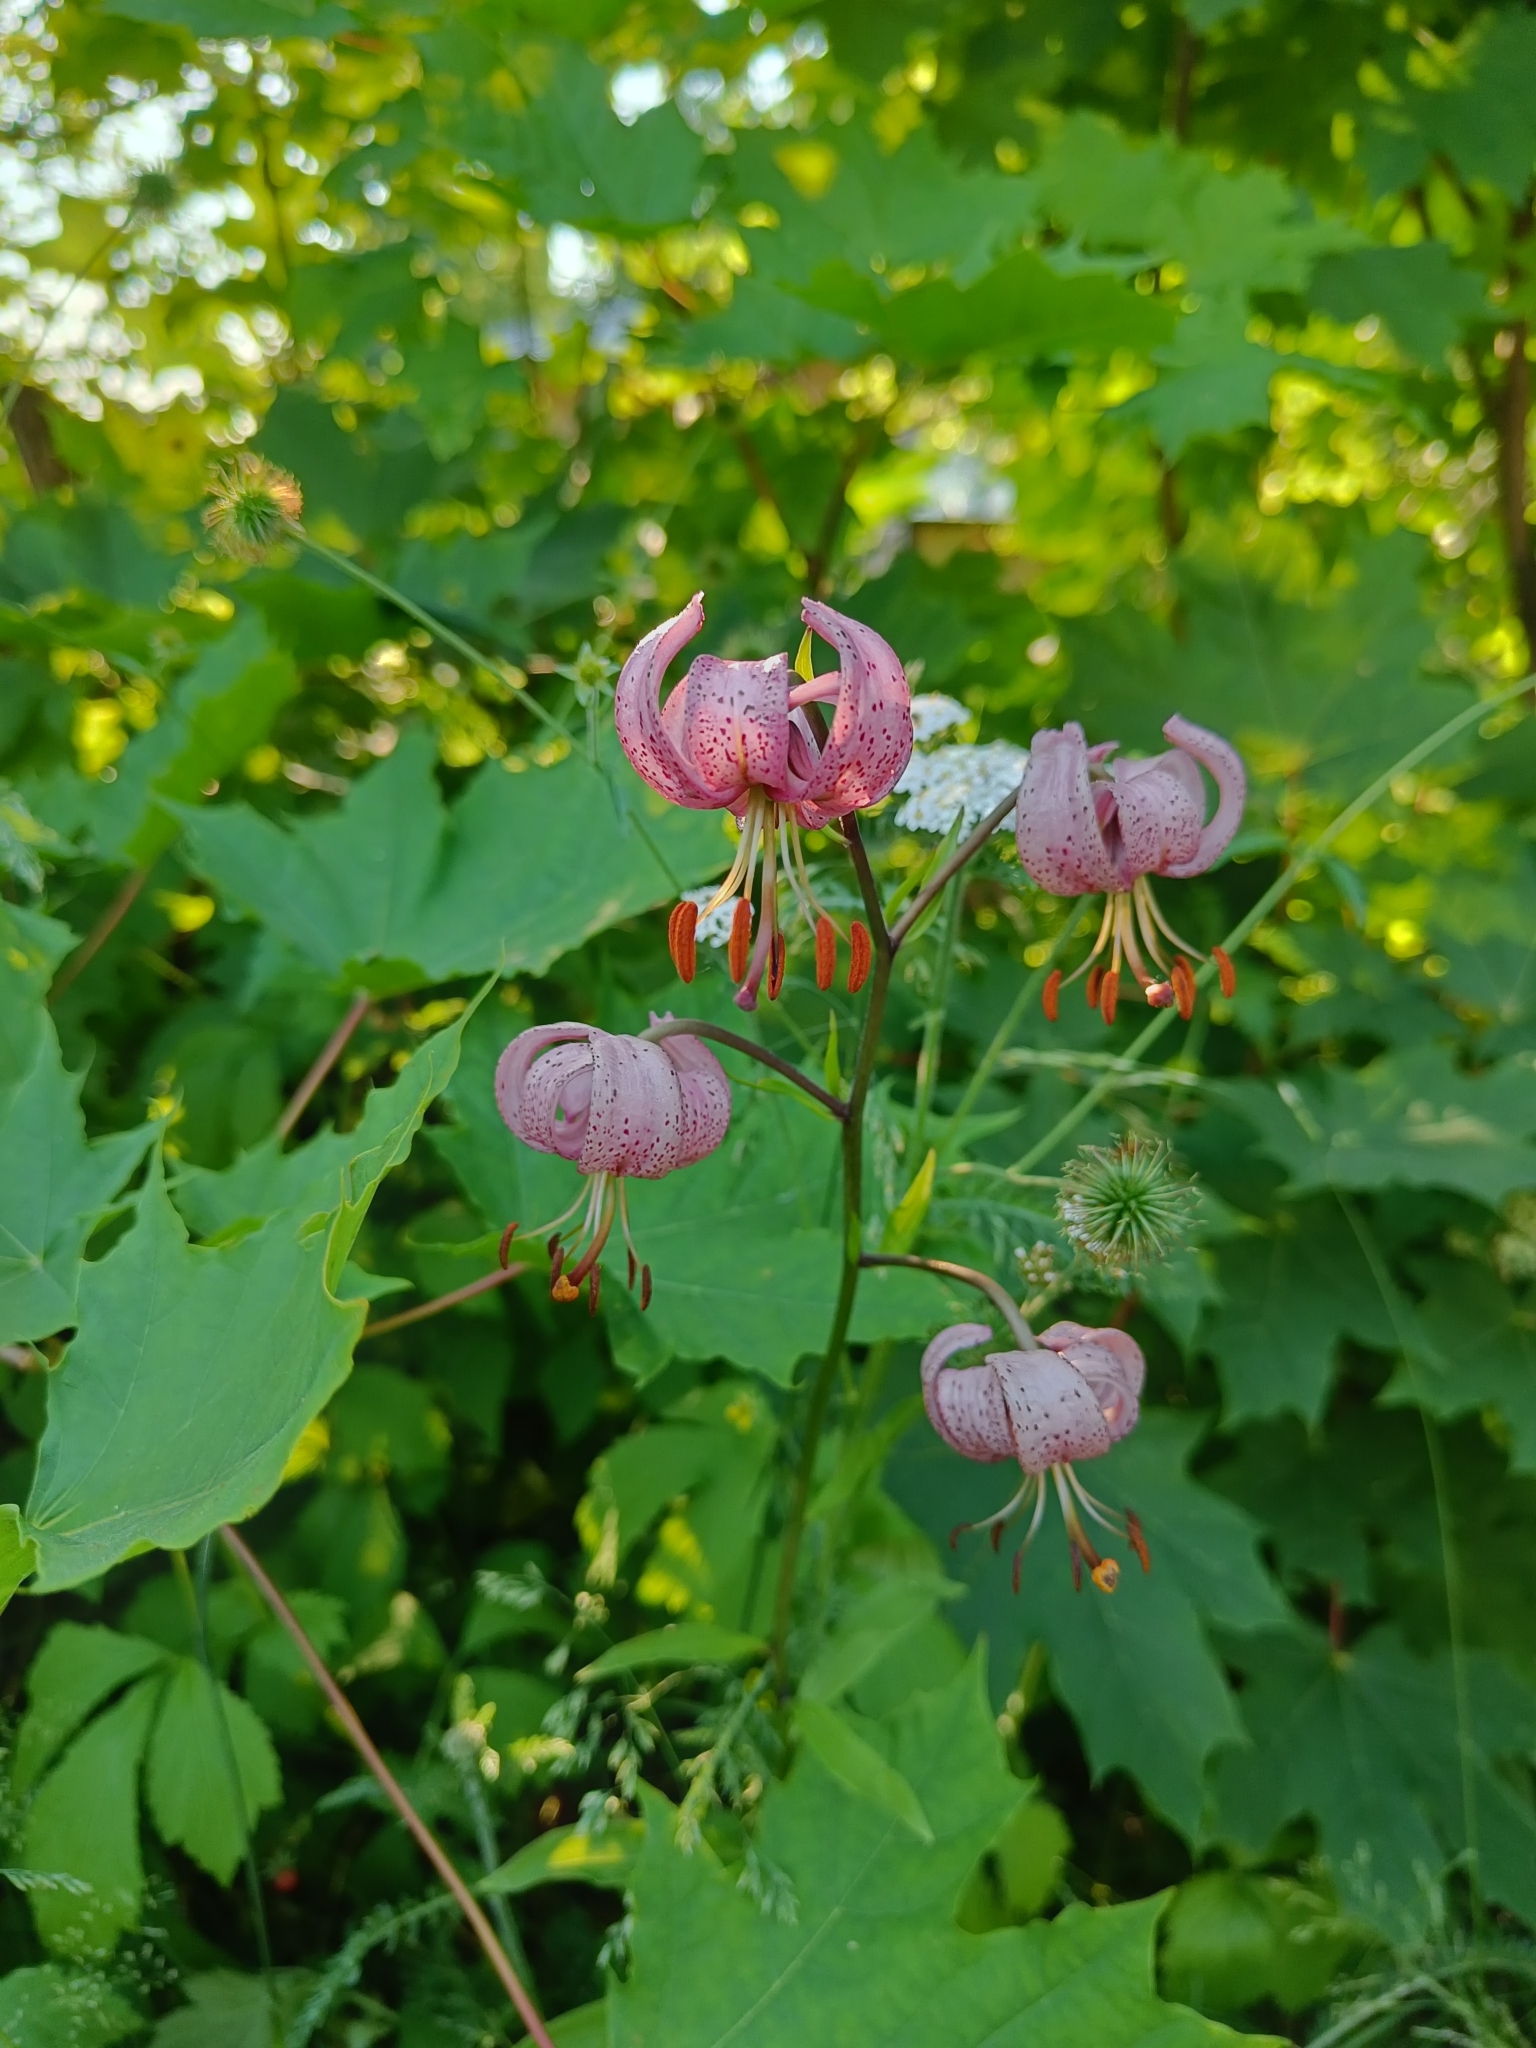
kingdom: Plantae
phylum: Tracheophyta
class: Liliopsida
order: Liliales
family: Liliaceae
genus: Lilium
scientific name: Lilium martagon
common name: Martagon lily
